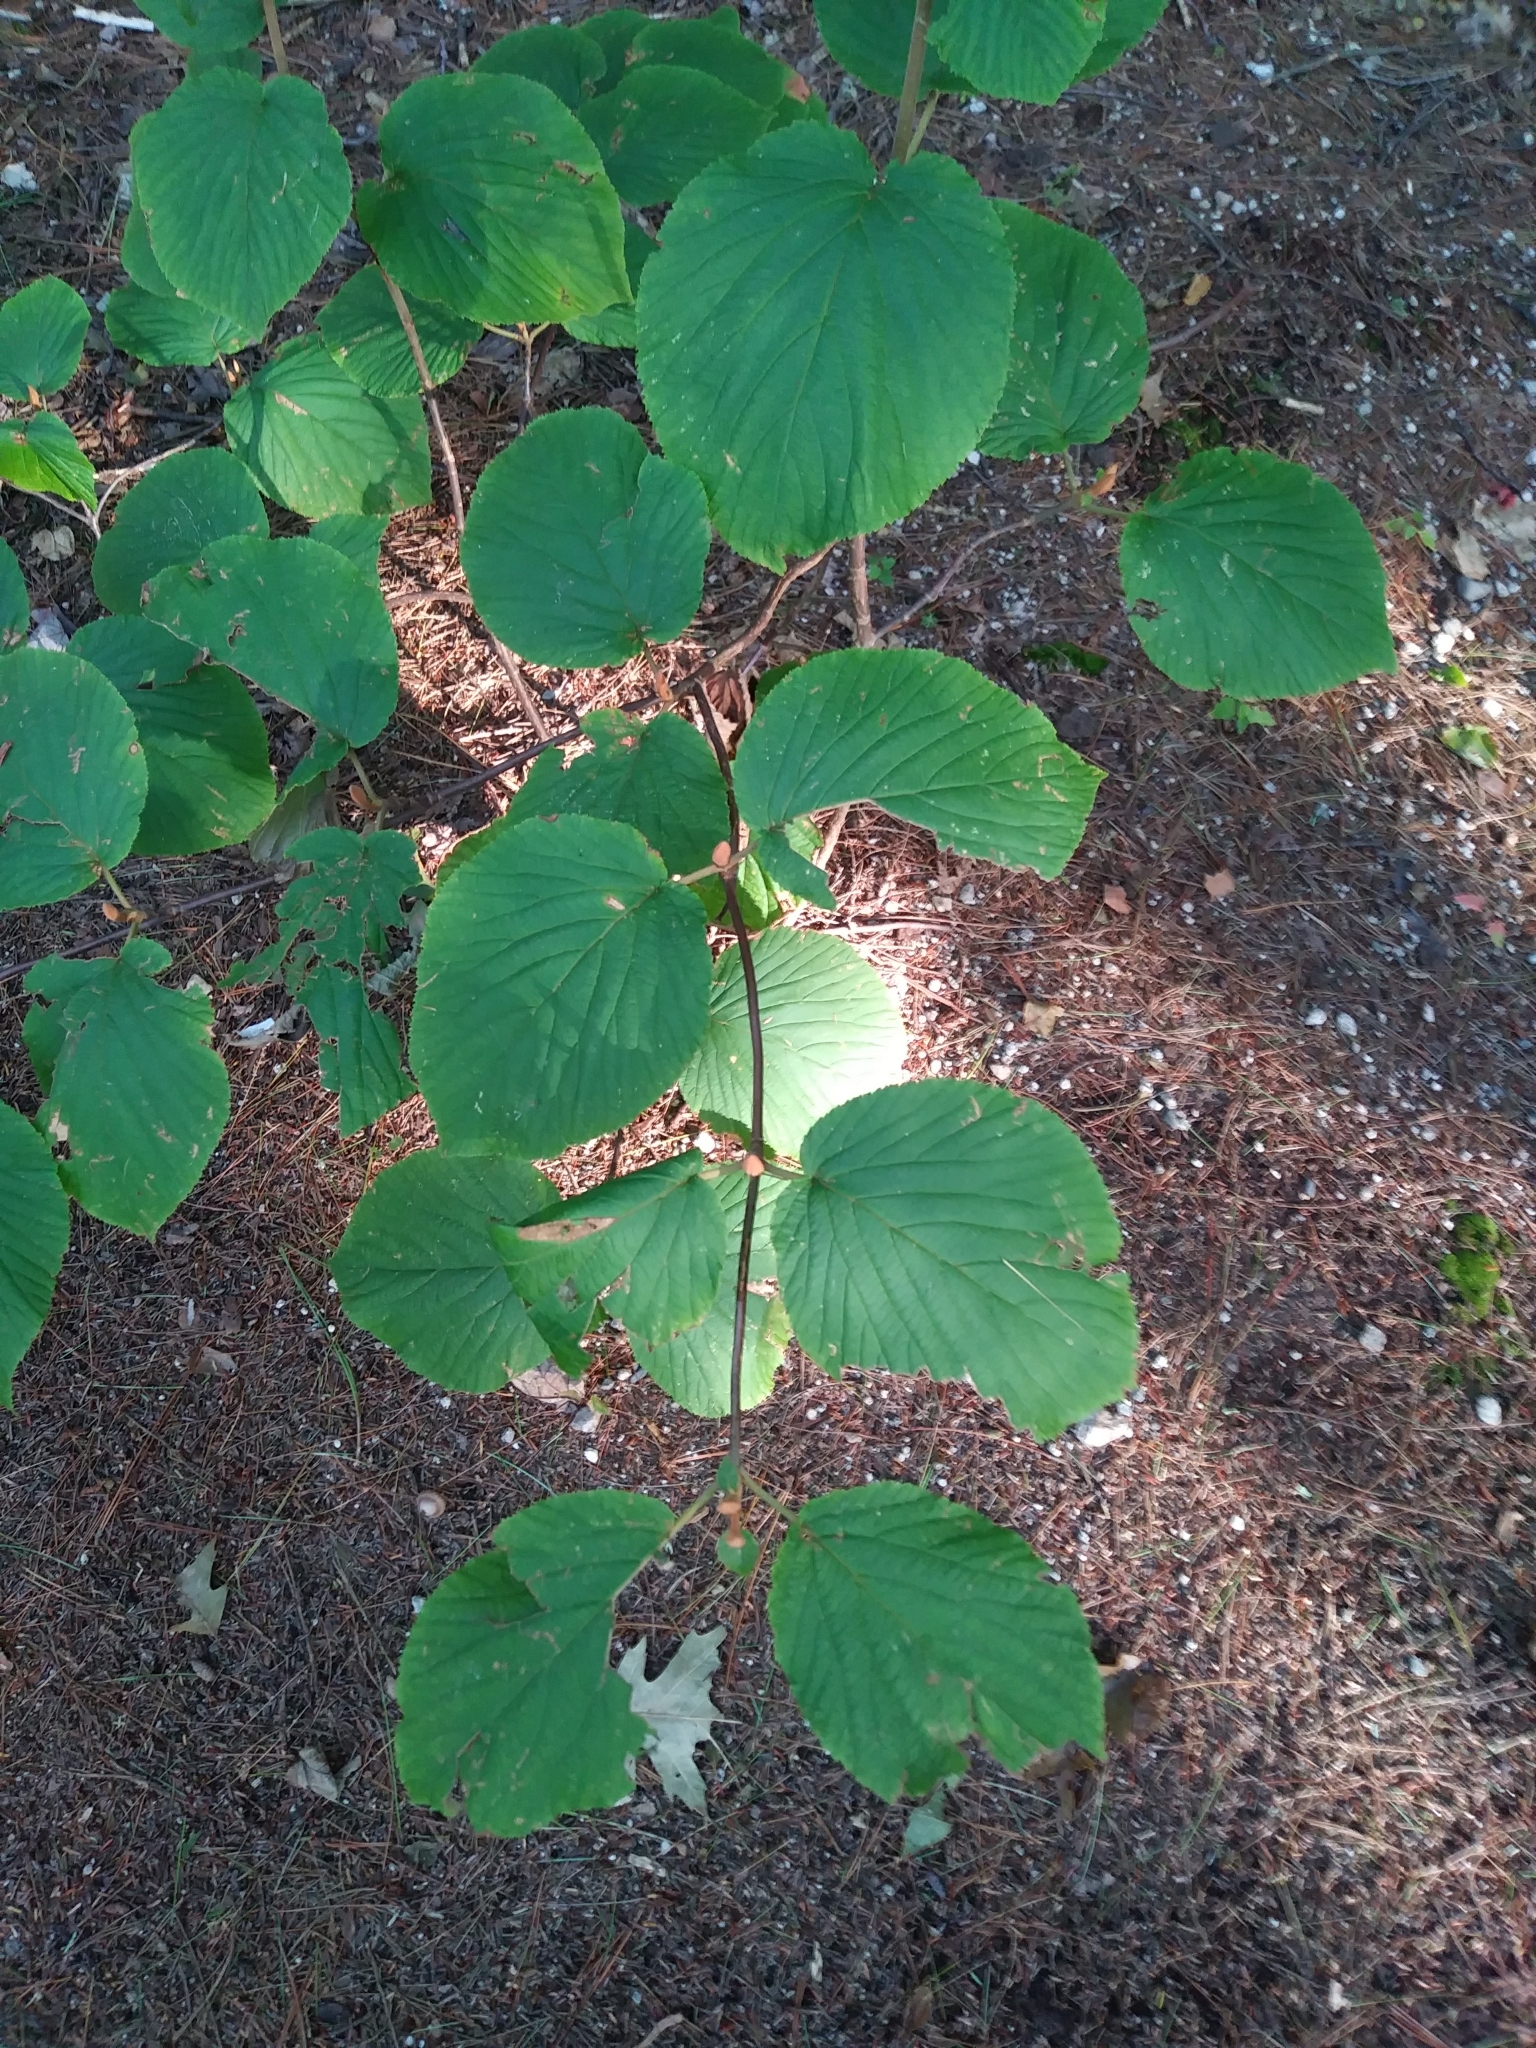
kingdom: Plantae
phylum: Tracheophyta
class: Magnoliopsida
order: Dipsacales
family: Viburnaceae
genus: Viburnum
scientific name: Viburnum lantanoides
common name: Hobblebush
